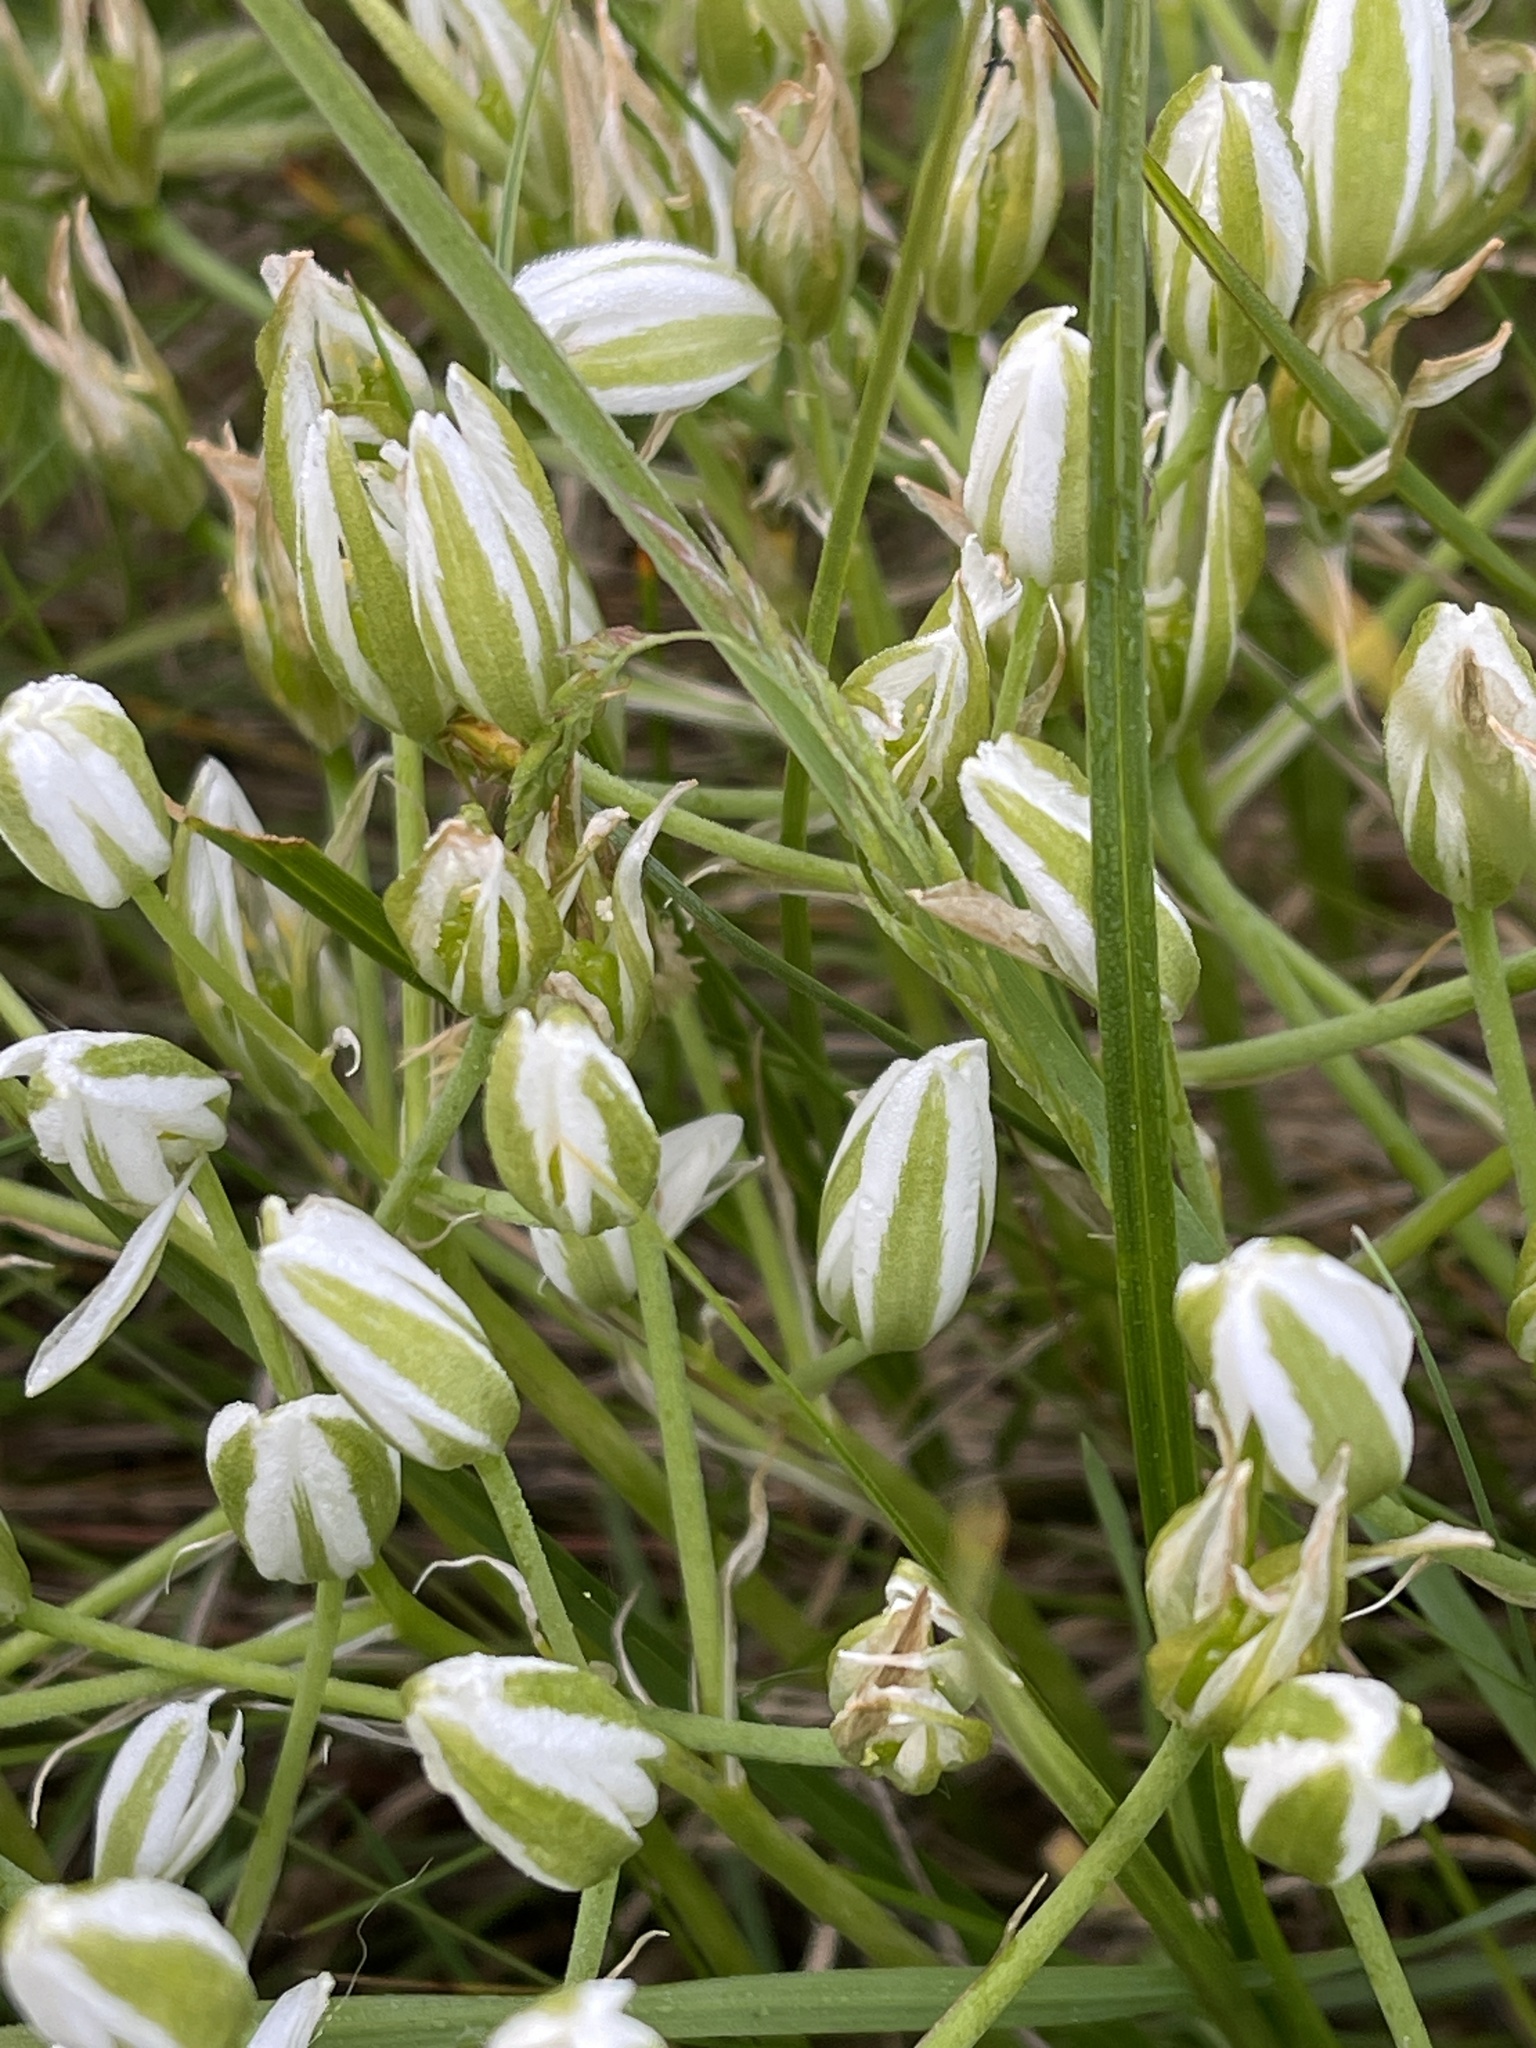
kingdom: Plantae
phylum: Tracheophyta
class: Liliopsida
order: Asparagales
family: Asparagaceae
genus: Ornithogalum
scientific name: Ornithogalum umbellatum
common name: Garden star-of-bethlehem
